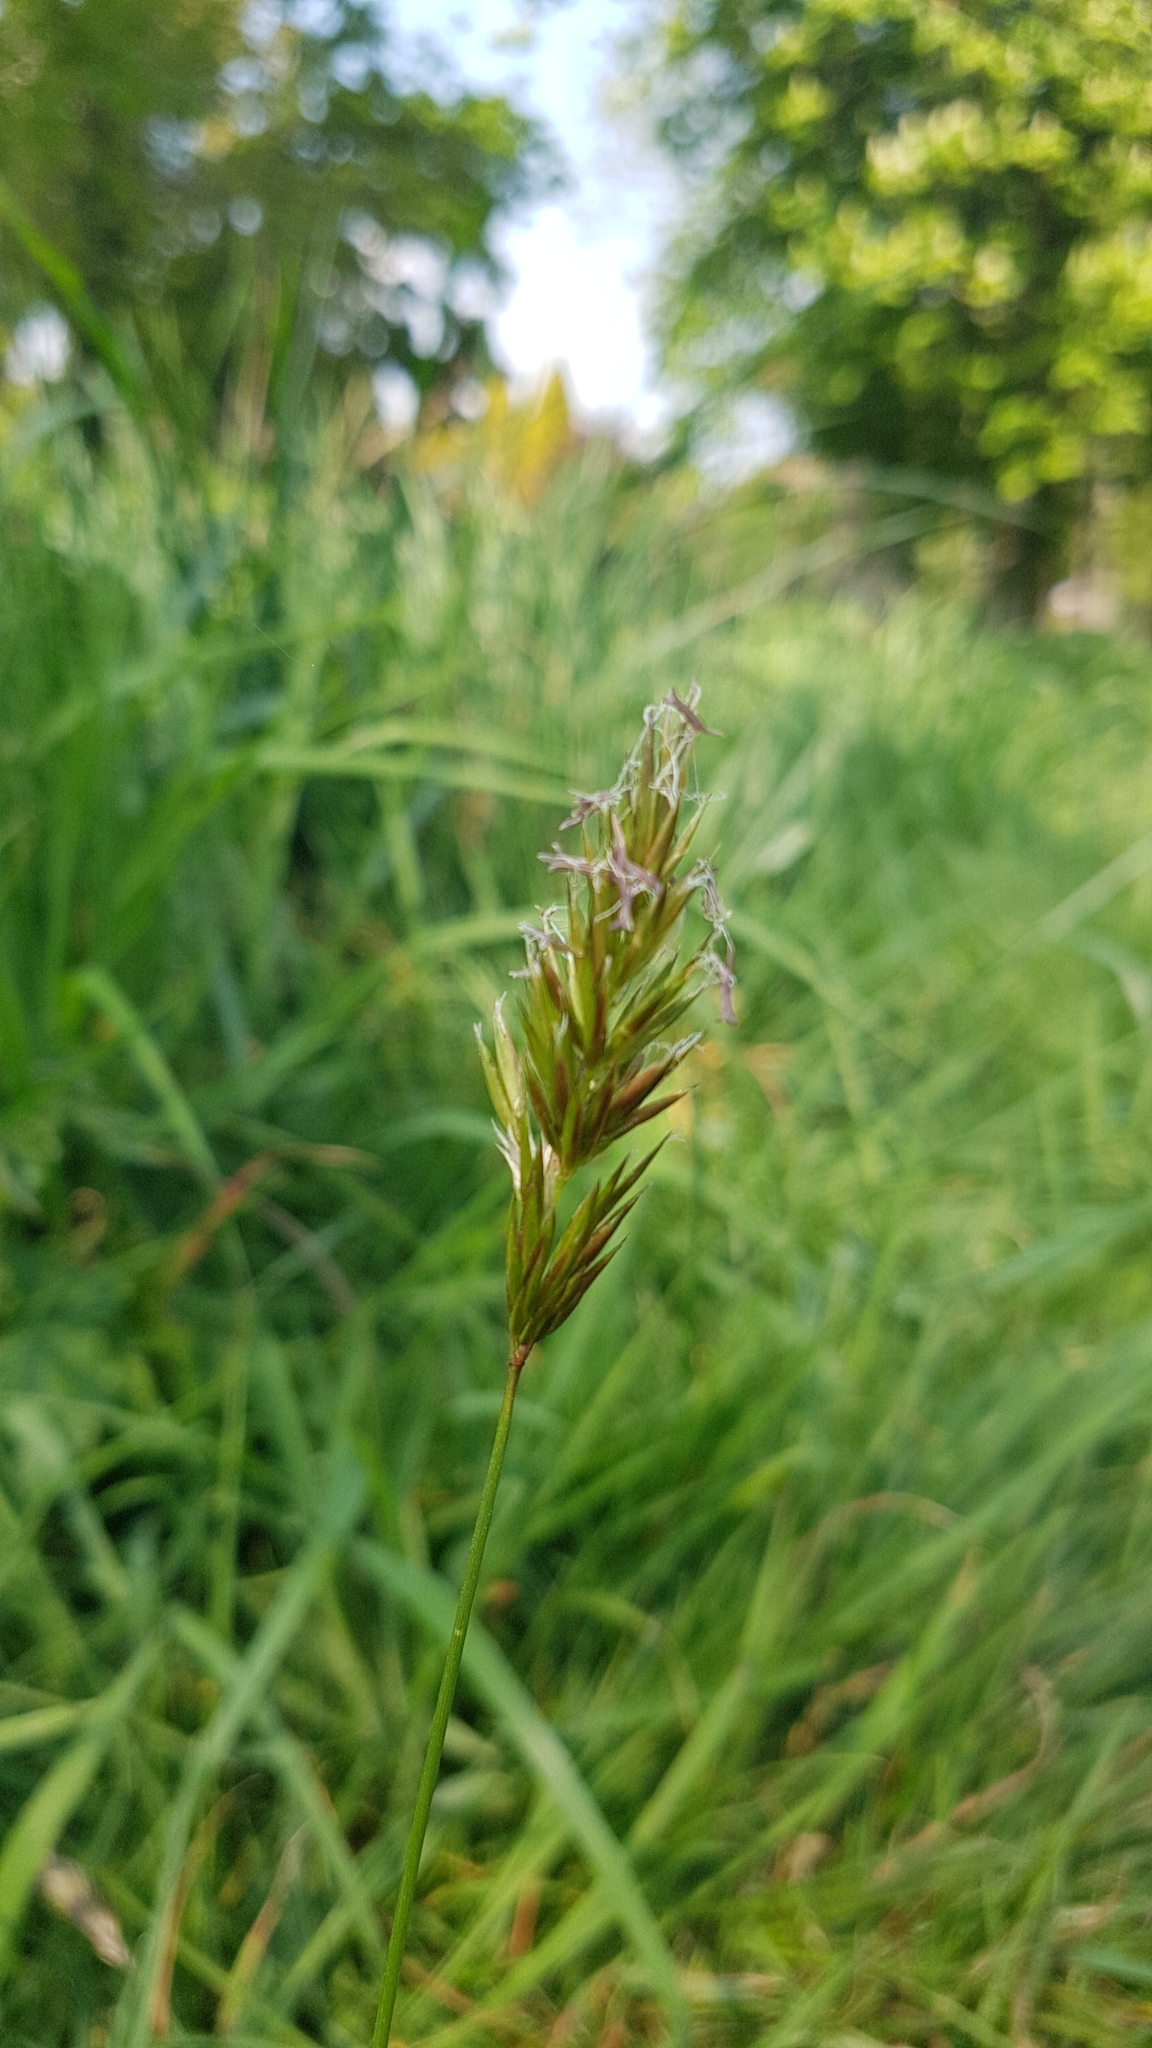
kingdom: Plantae
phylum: Tracheophyta
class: Liliopsida
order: Poales
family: Poaceae
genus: Anthoxanthum
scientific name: Anthoxanthum odoratum
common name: Sweet vernalgrass
